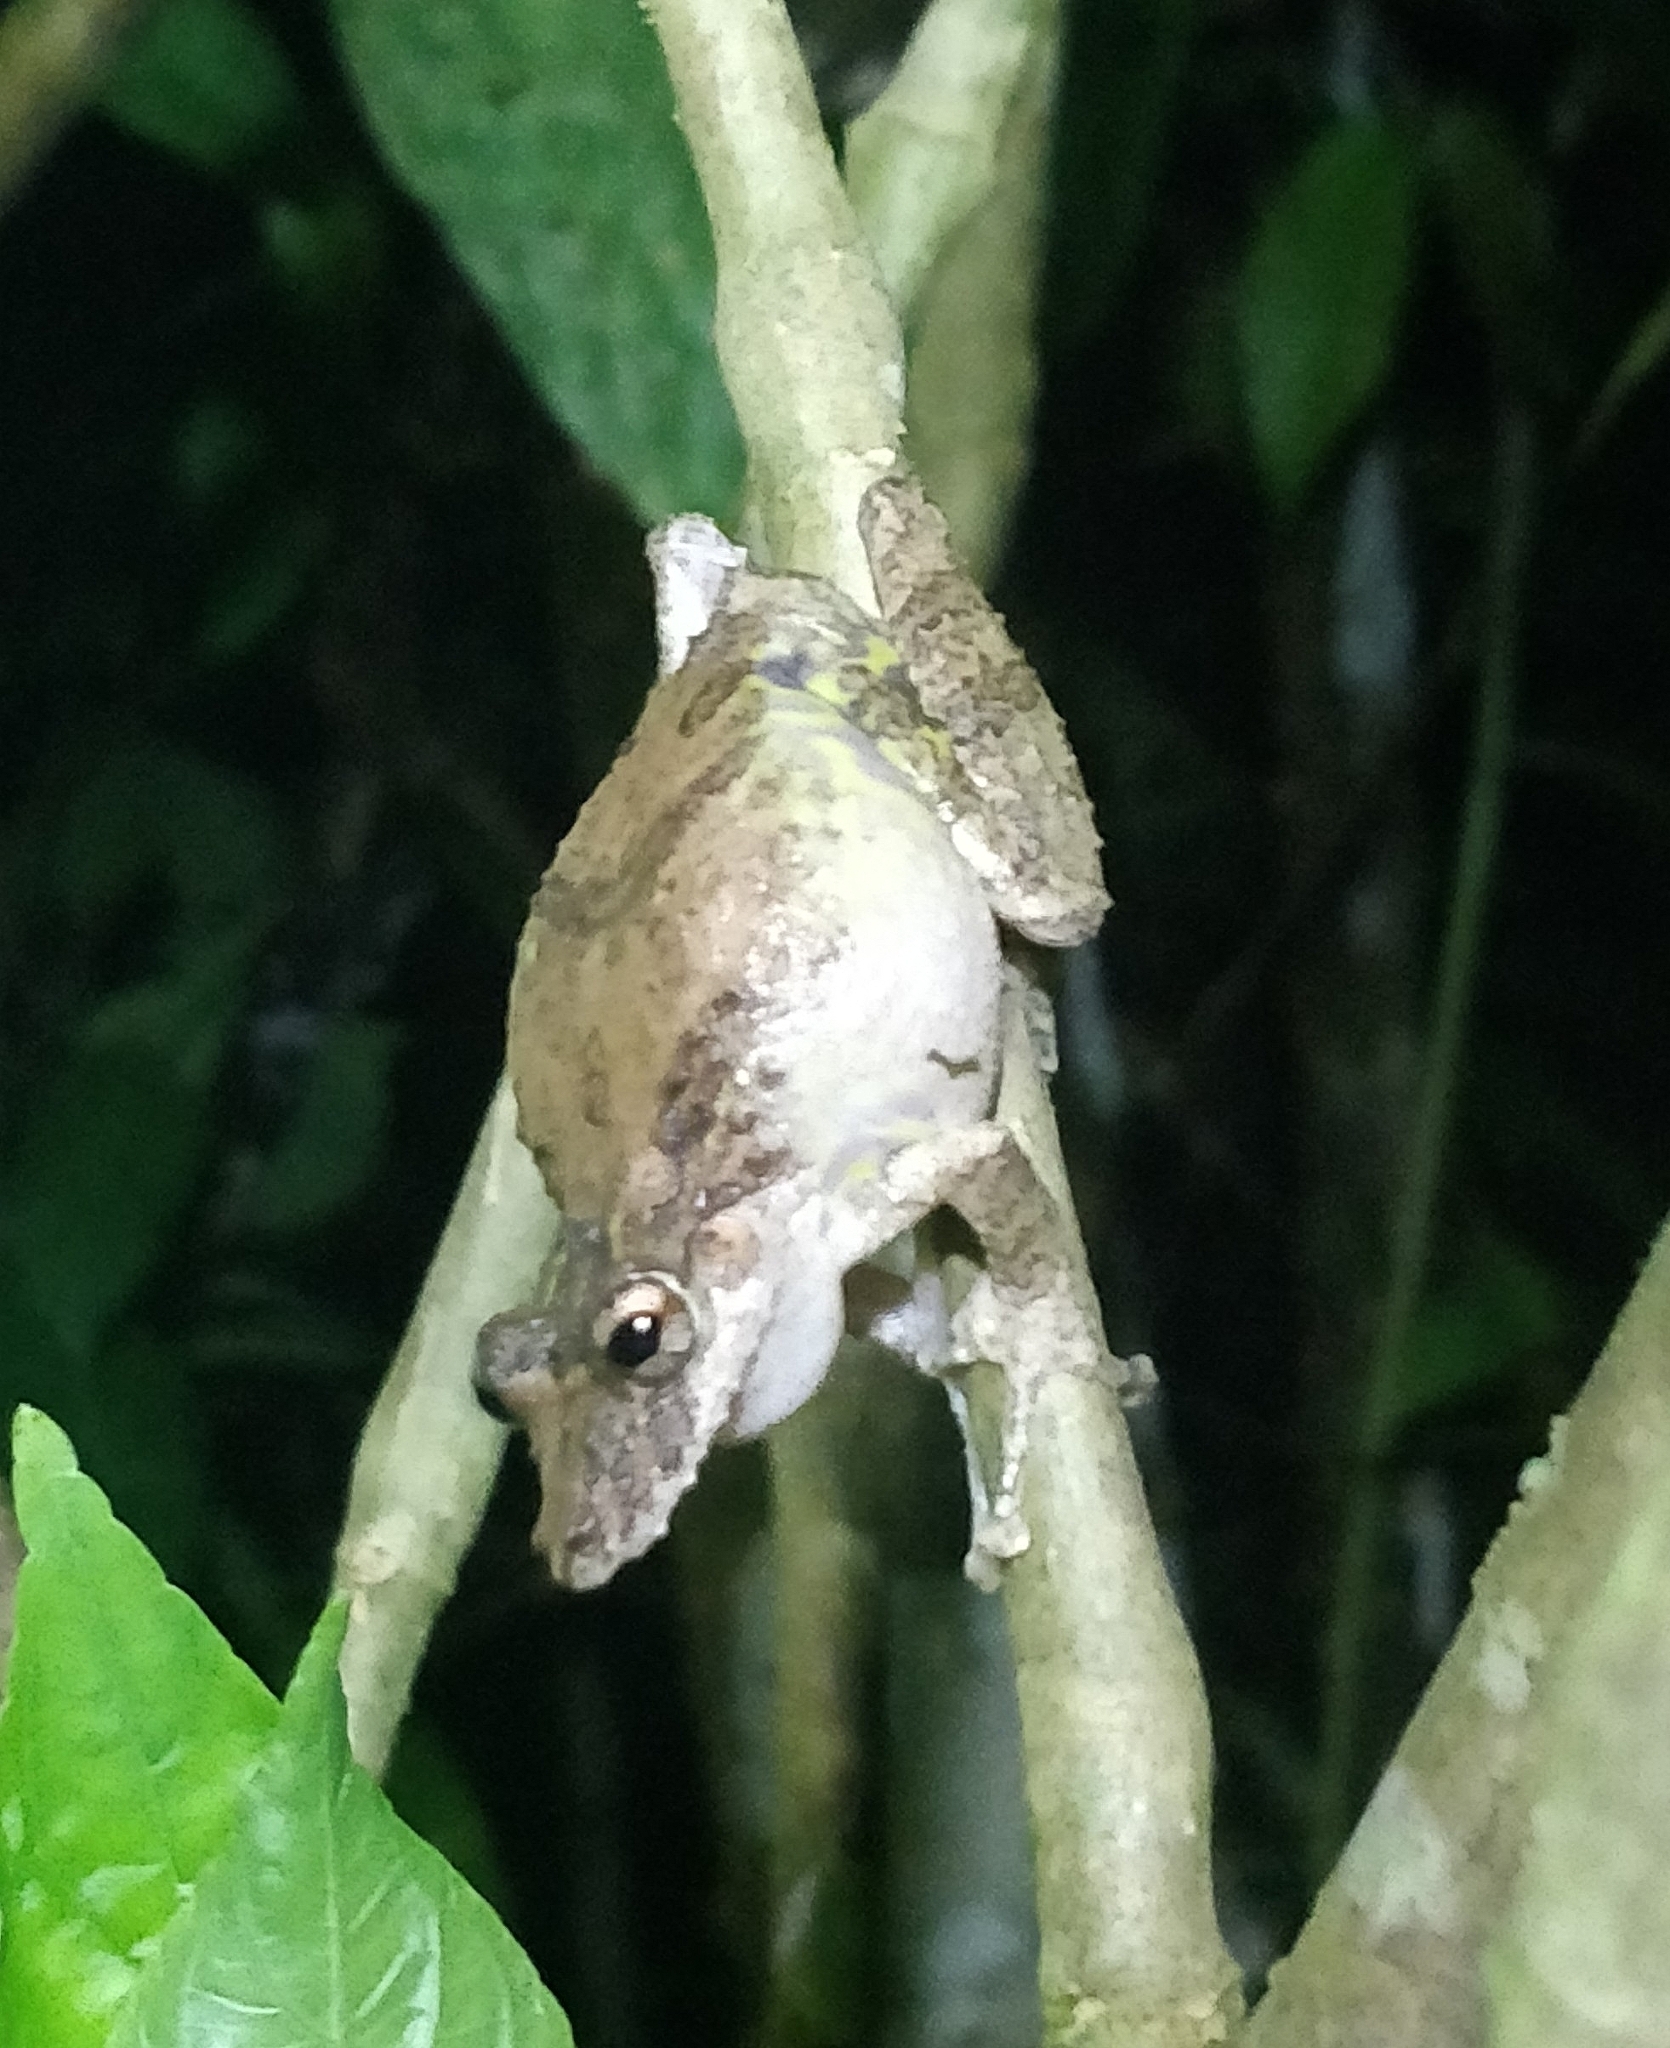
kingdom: Animalia
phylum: Chordata
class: Amphibia
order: Anura
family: Hylidae
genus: Scinax
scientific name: Scinax boulengeri
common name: Boulenger's snouted treefrog
